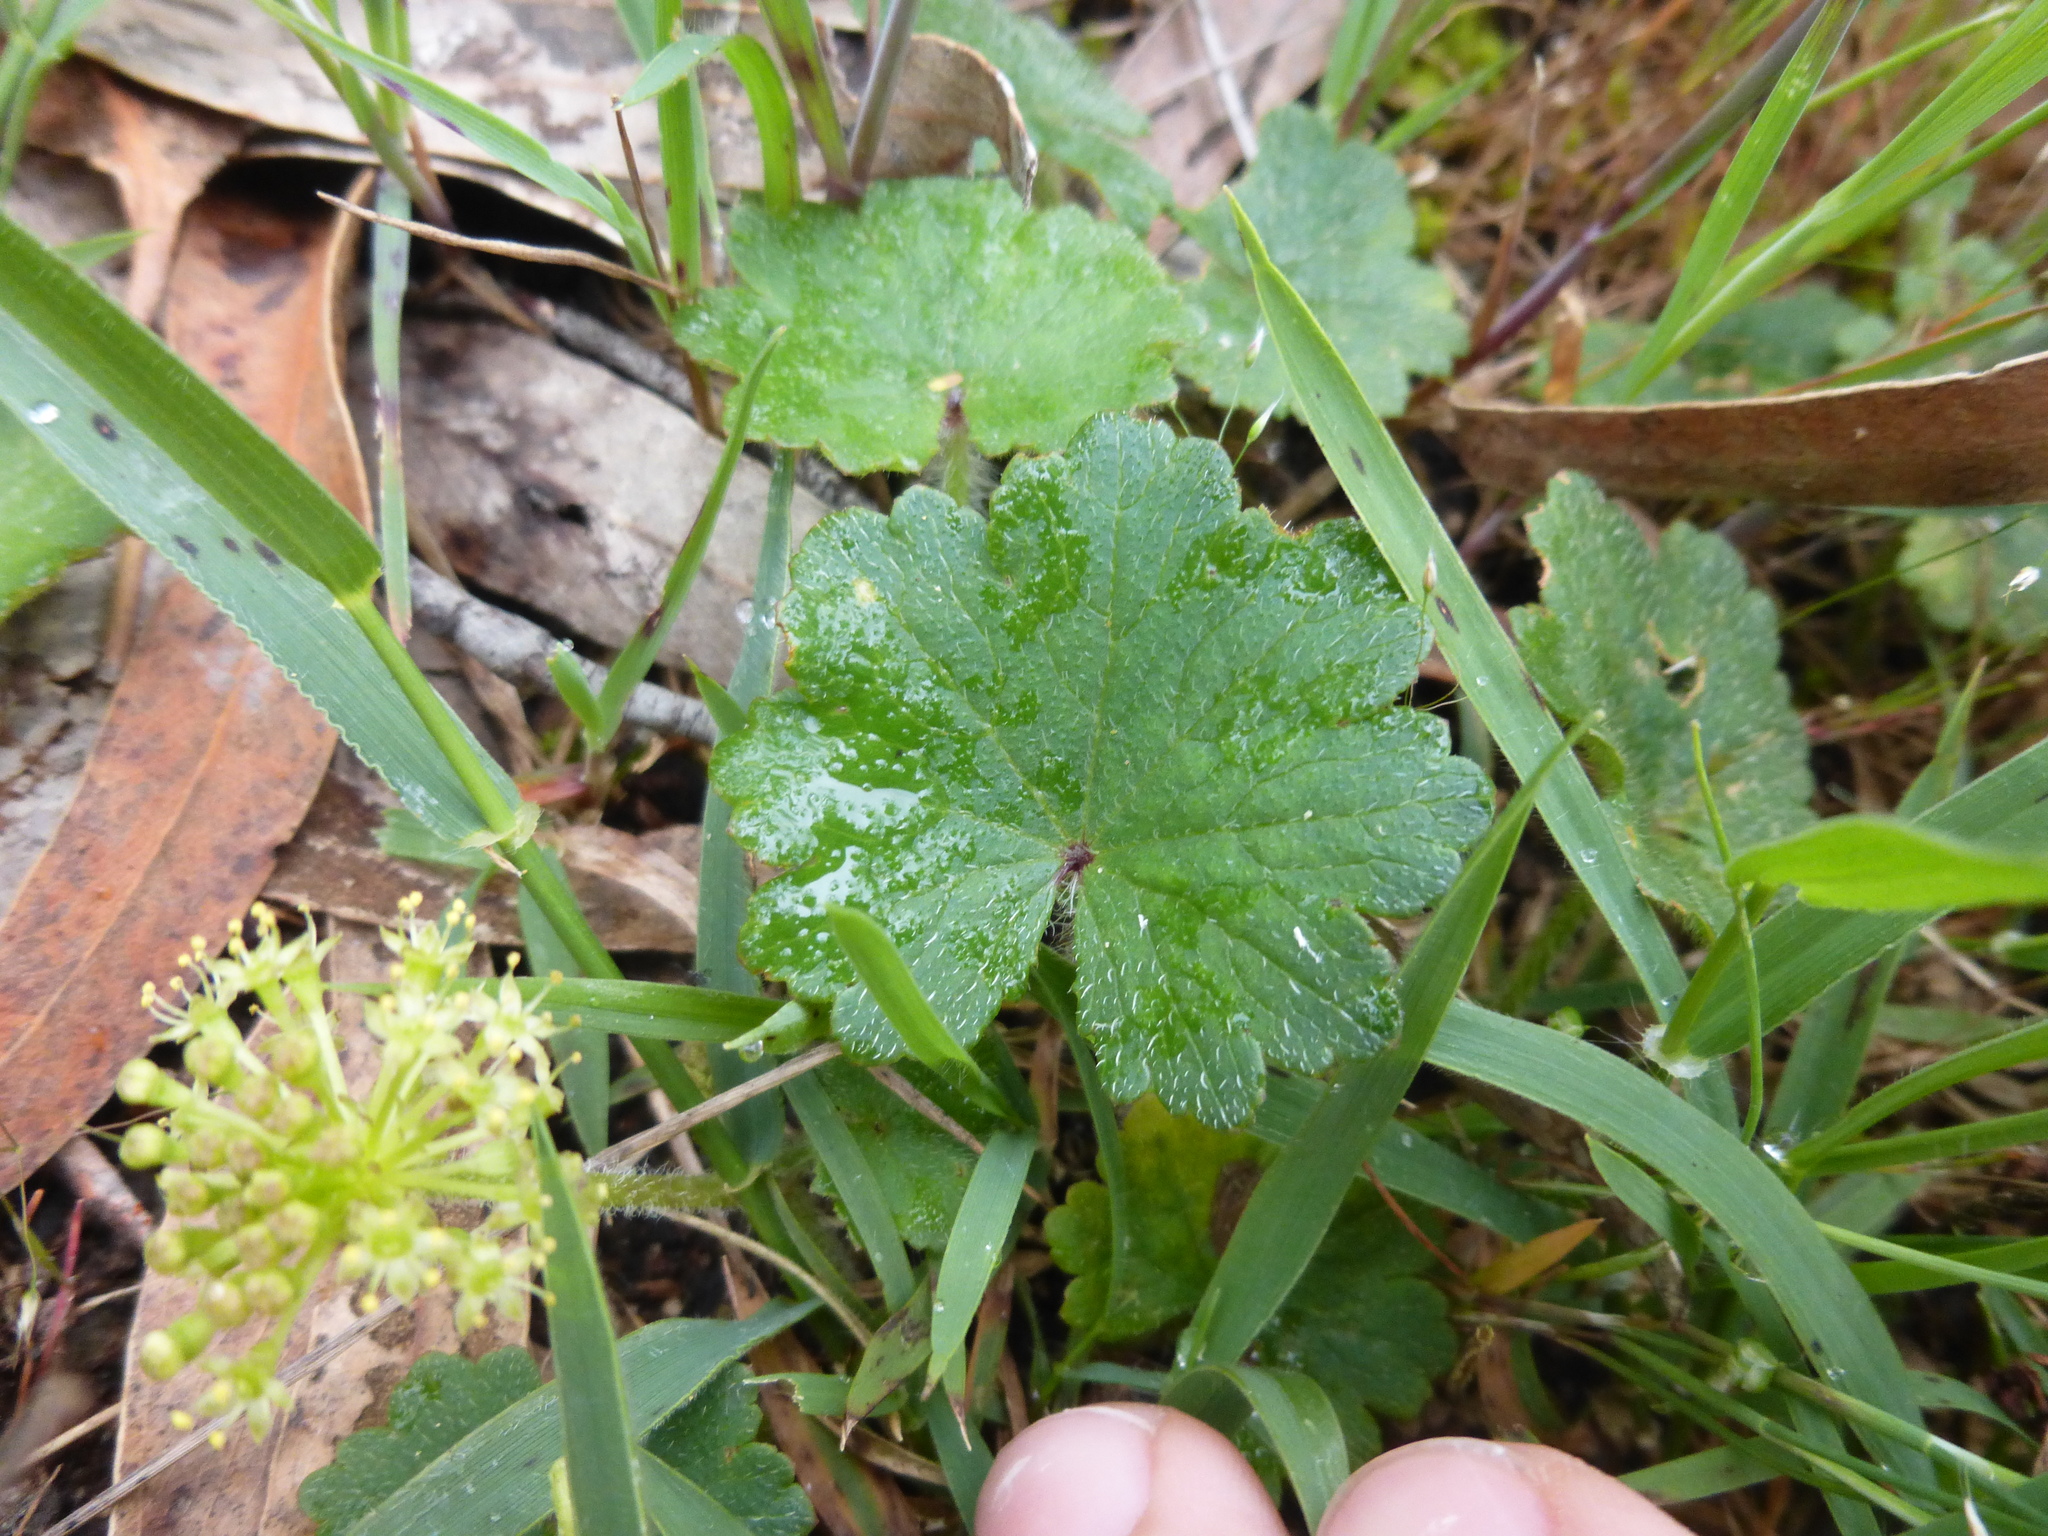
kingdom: Plantae
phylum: Tracheophyta
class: Magnoliopsida
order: Apiales
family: Araliaceae
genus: Hydrocotyle
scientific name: Hydrocotyle laxiflora
